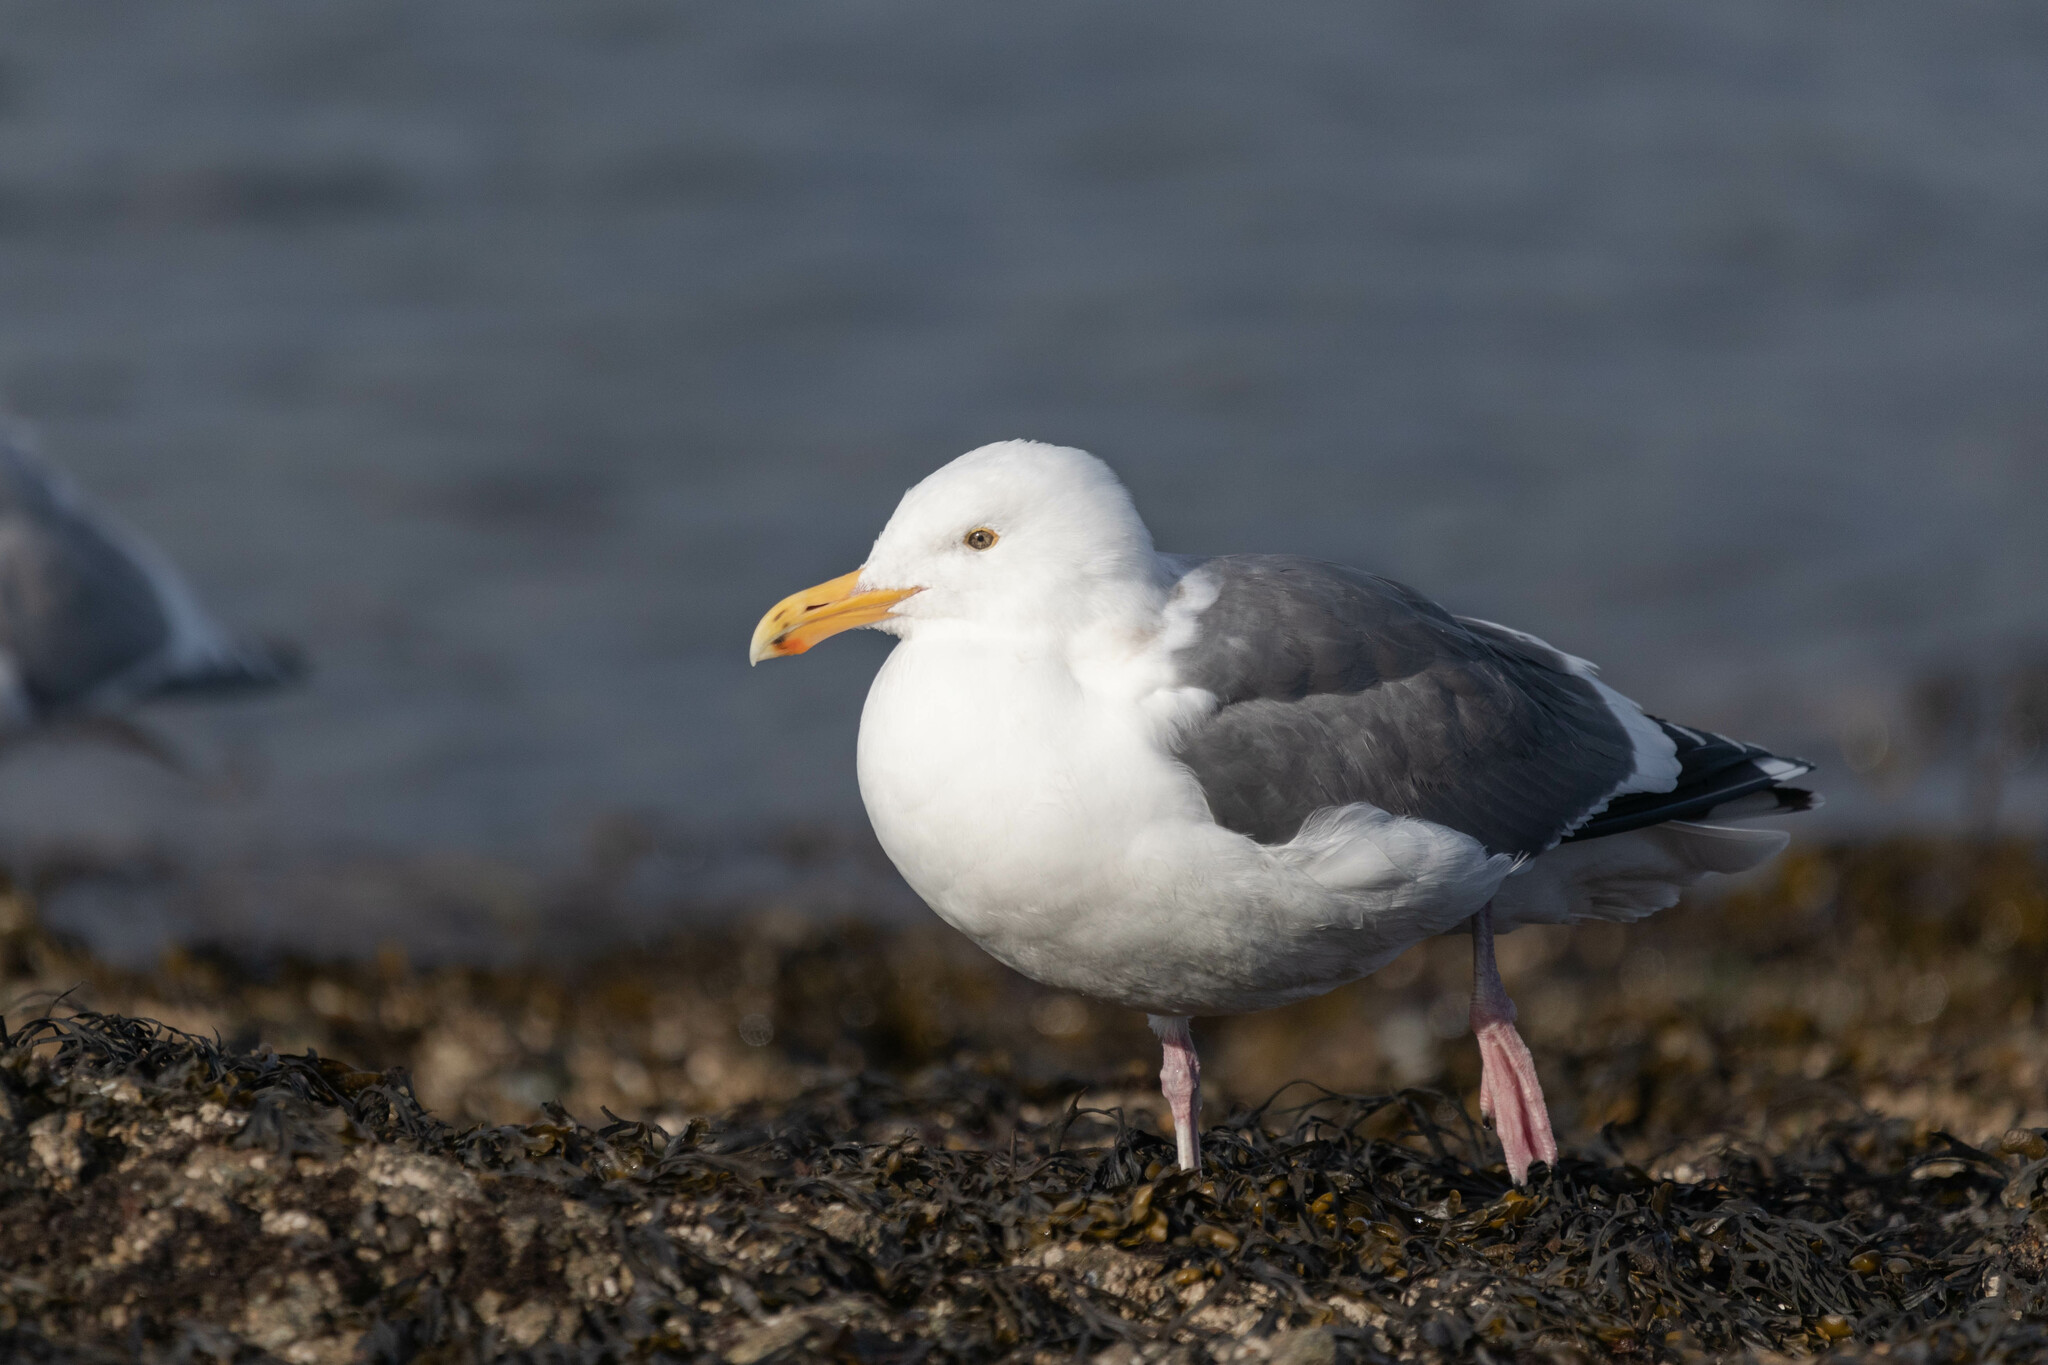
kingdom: Animalia
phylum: Chordata
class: Aves
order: Charadriiformes
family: Laridae
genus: Larus
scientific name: Larus occidentalis
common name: Western gull
